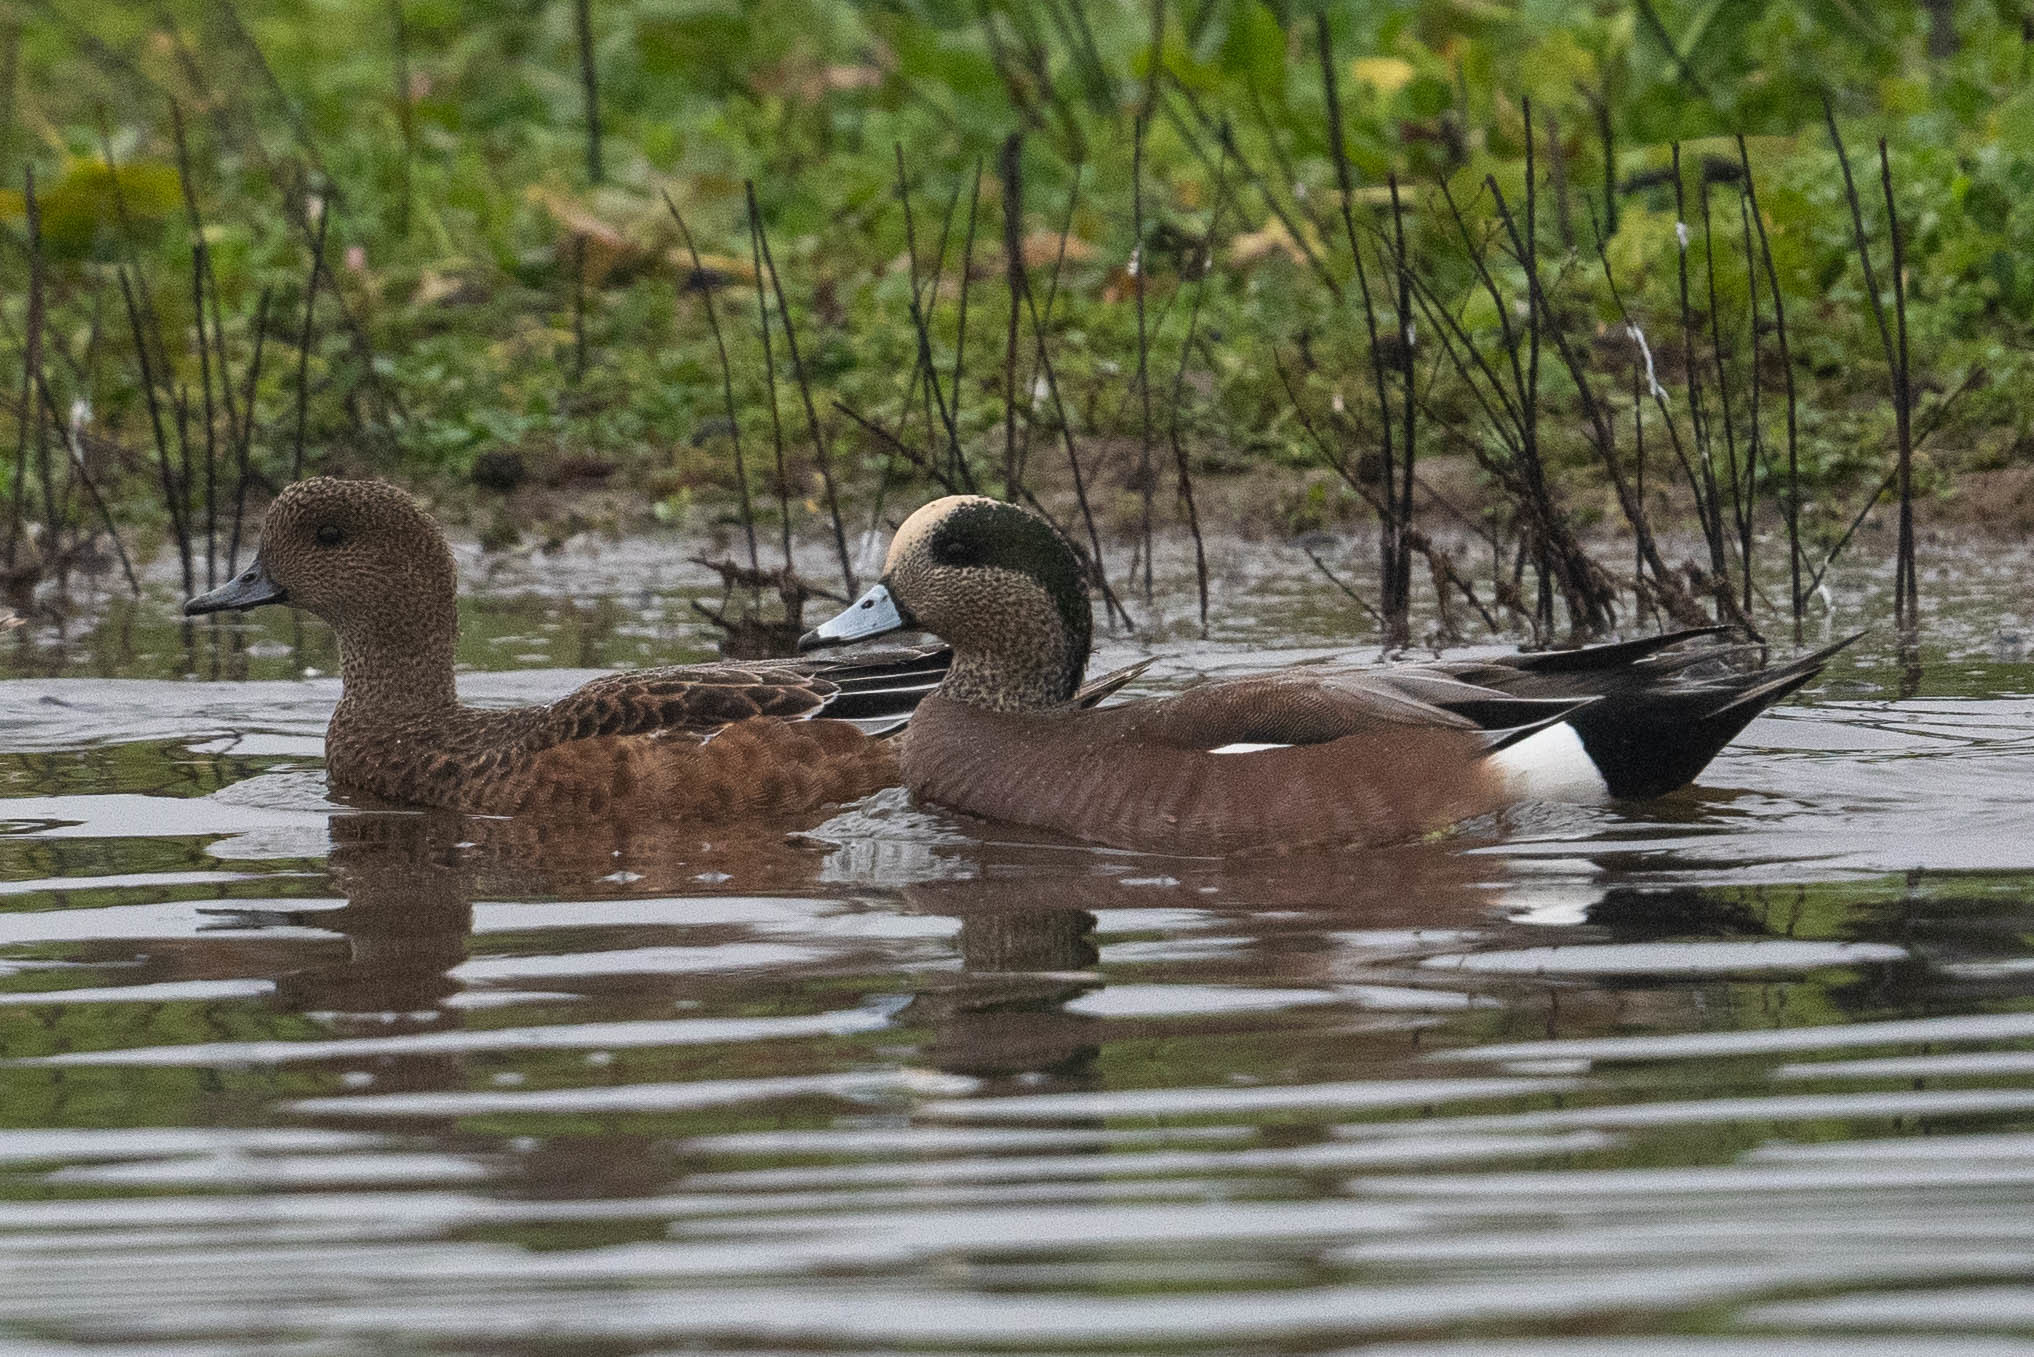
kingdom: Animalia
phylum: Chordata
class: Aves
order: Anseriformes
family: Anatidae
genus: Mareca
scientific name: Mareca americana
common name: American wigeon
